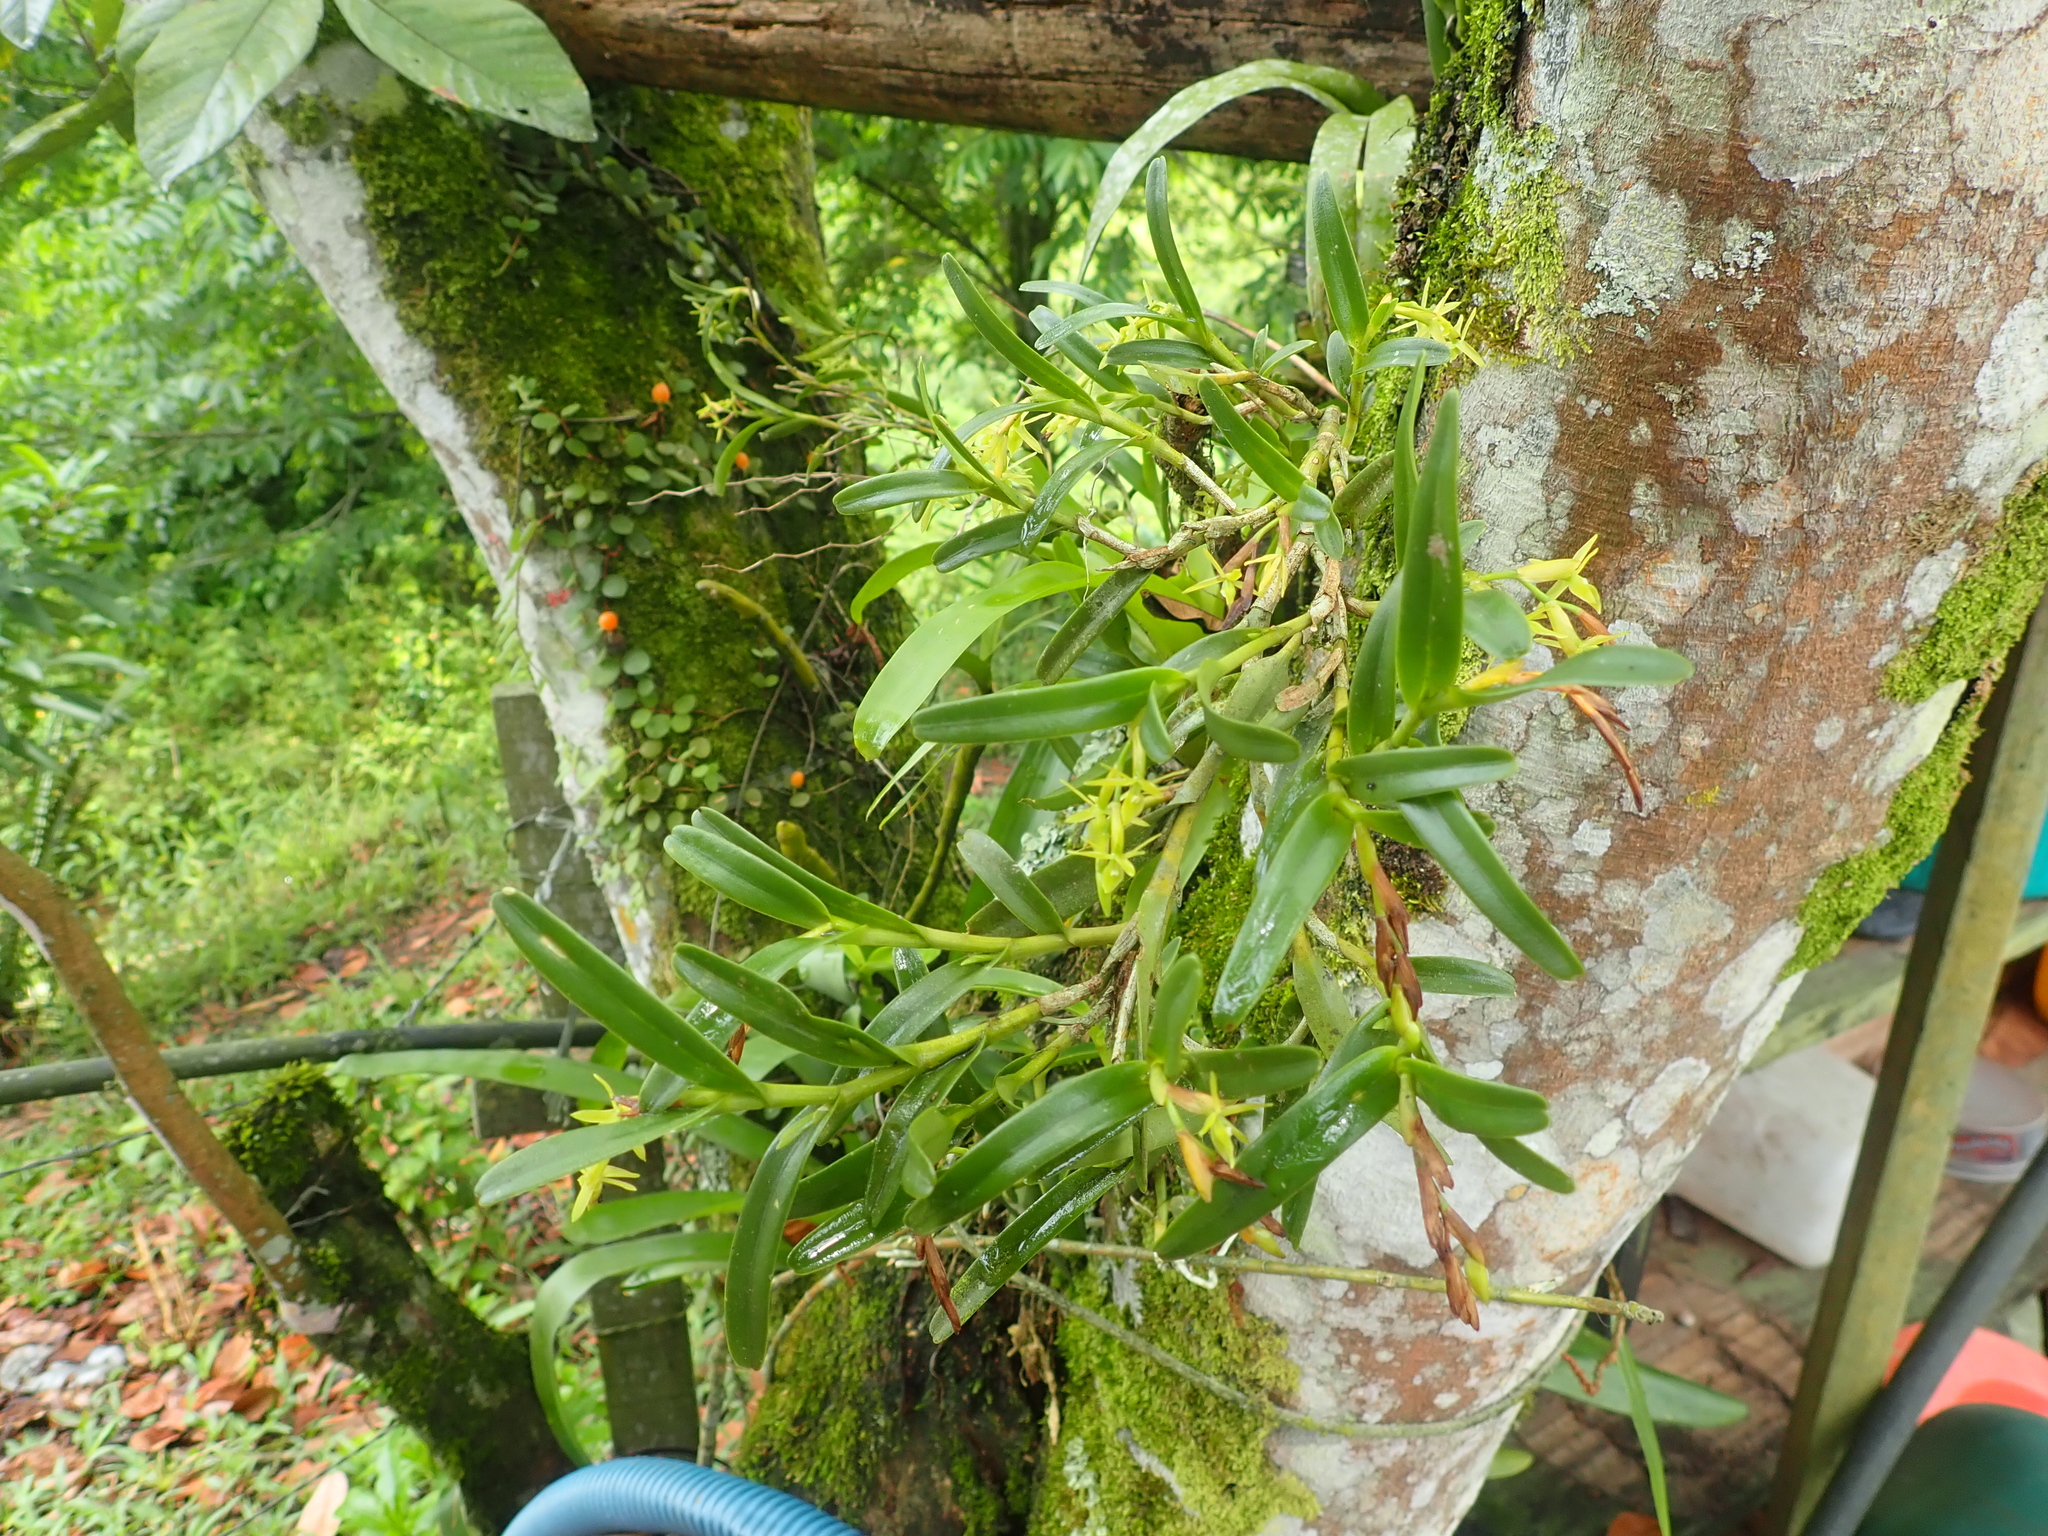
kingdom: Plantae
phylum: Tracheophyta
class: Liliopsida
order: Asparagales
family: Orchidaceae
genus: Epidendrum
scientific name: Epidendrum ramosum
